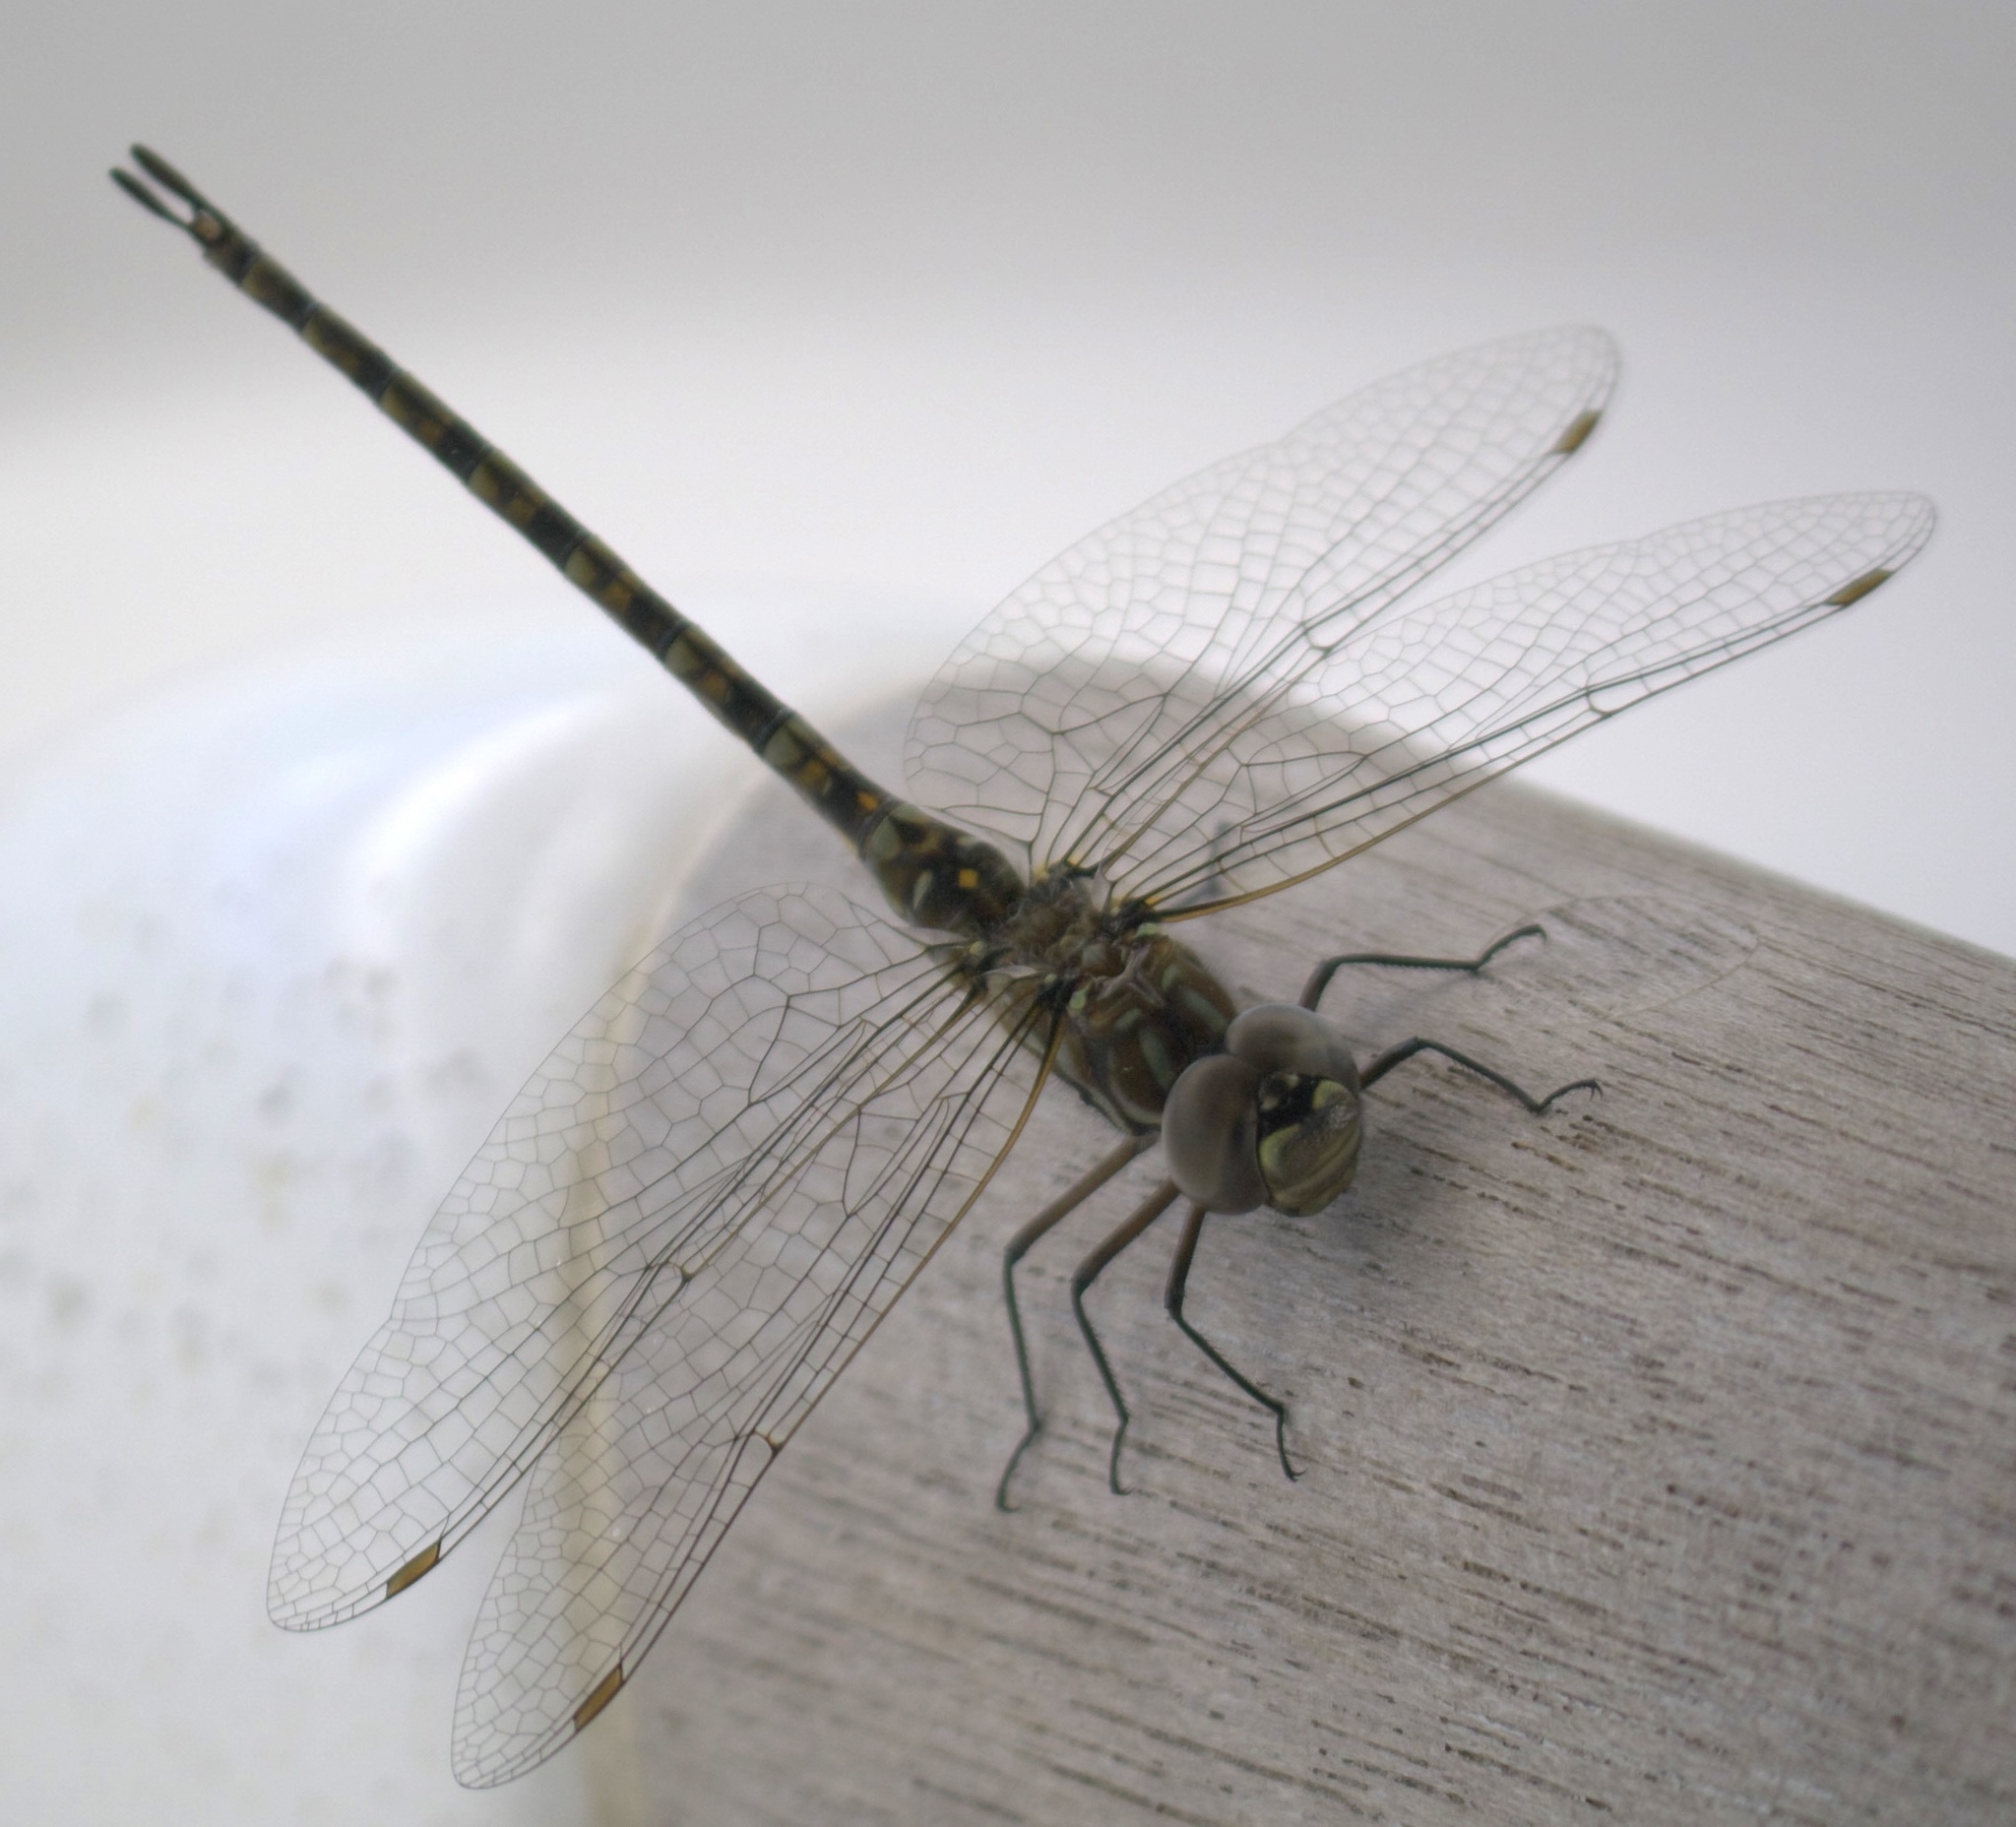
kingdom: Animalia
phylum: Arthropoda
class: Insecta
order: Odonata
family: Aeshnidae
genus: Gomphaeschna
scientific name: Gomphaeschna antilope
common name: Taper-tailed darner
